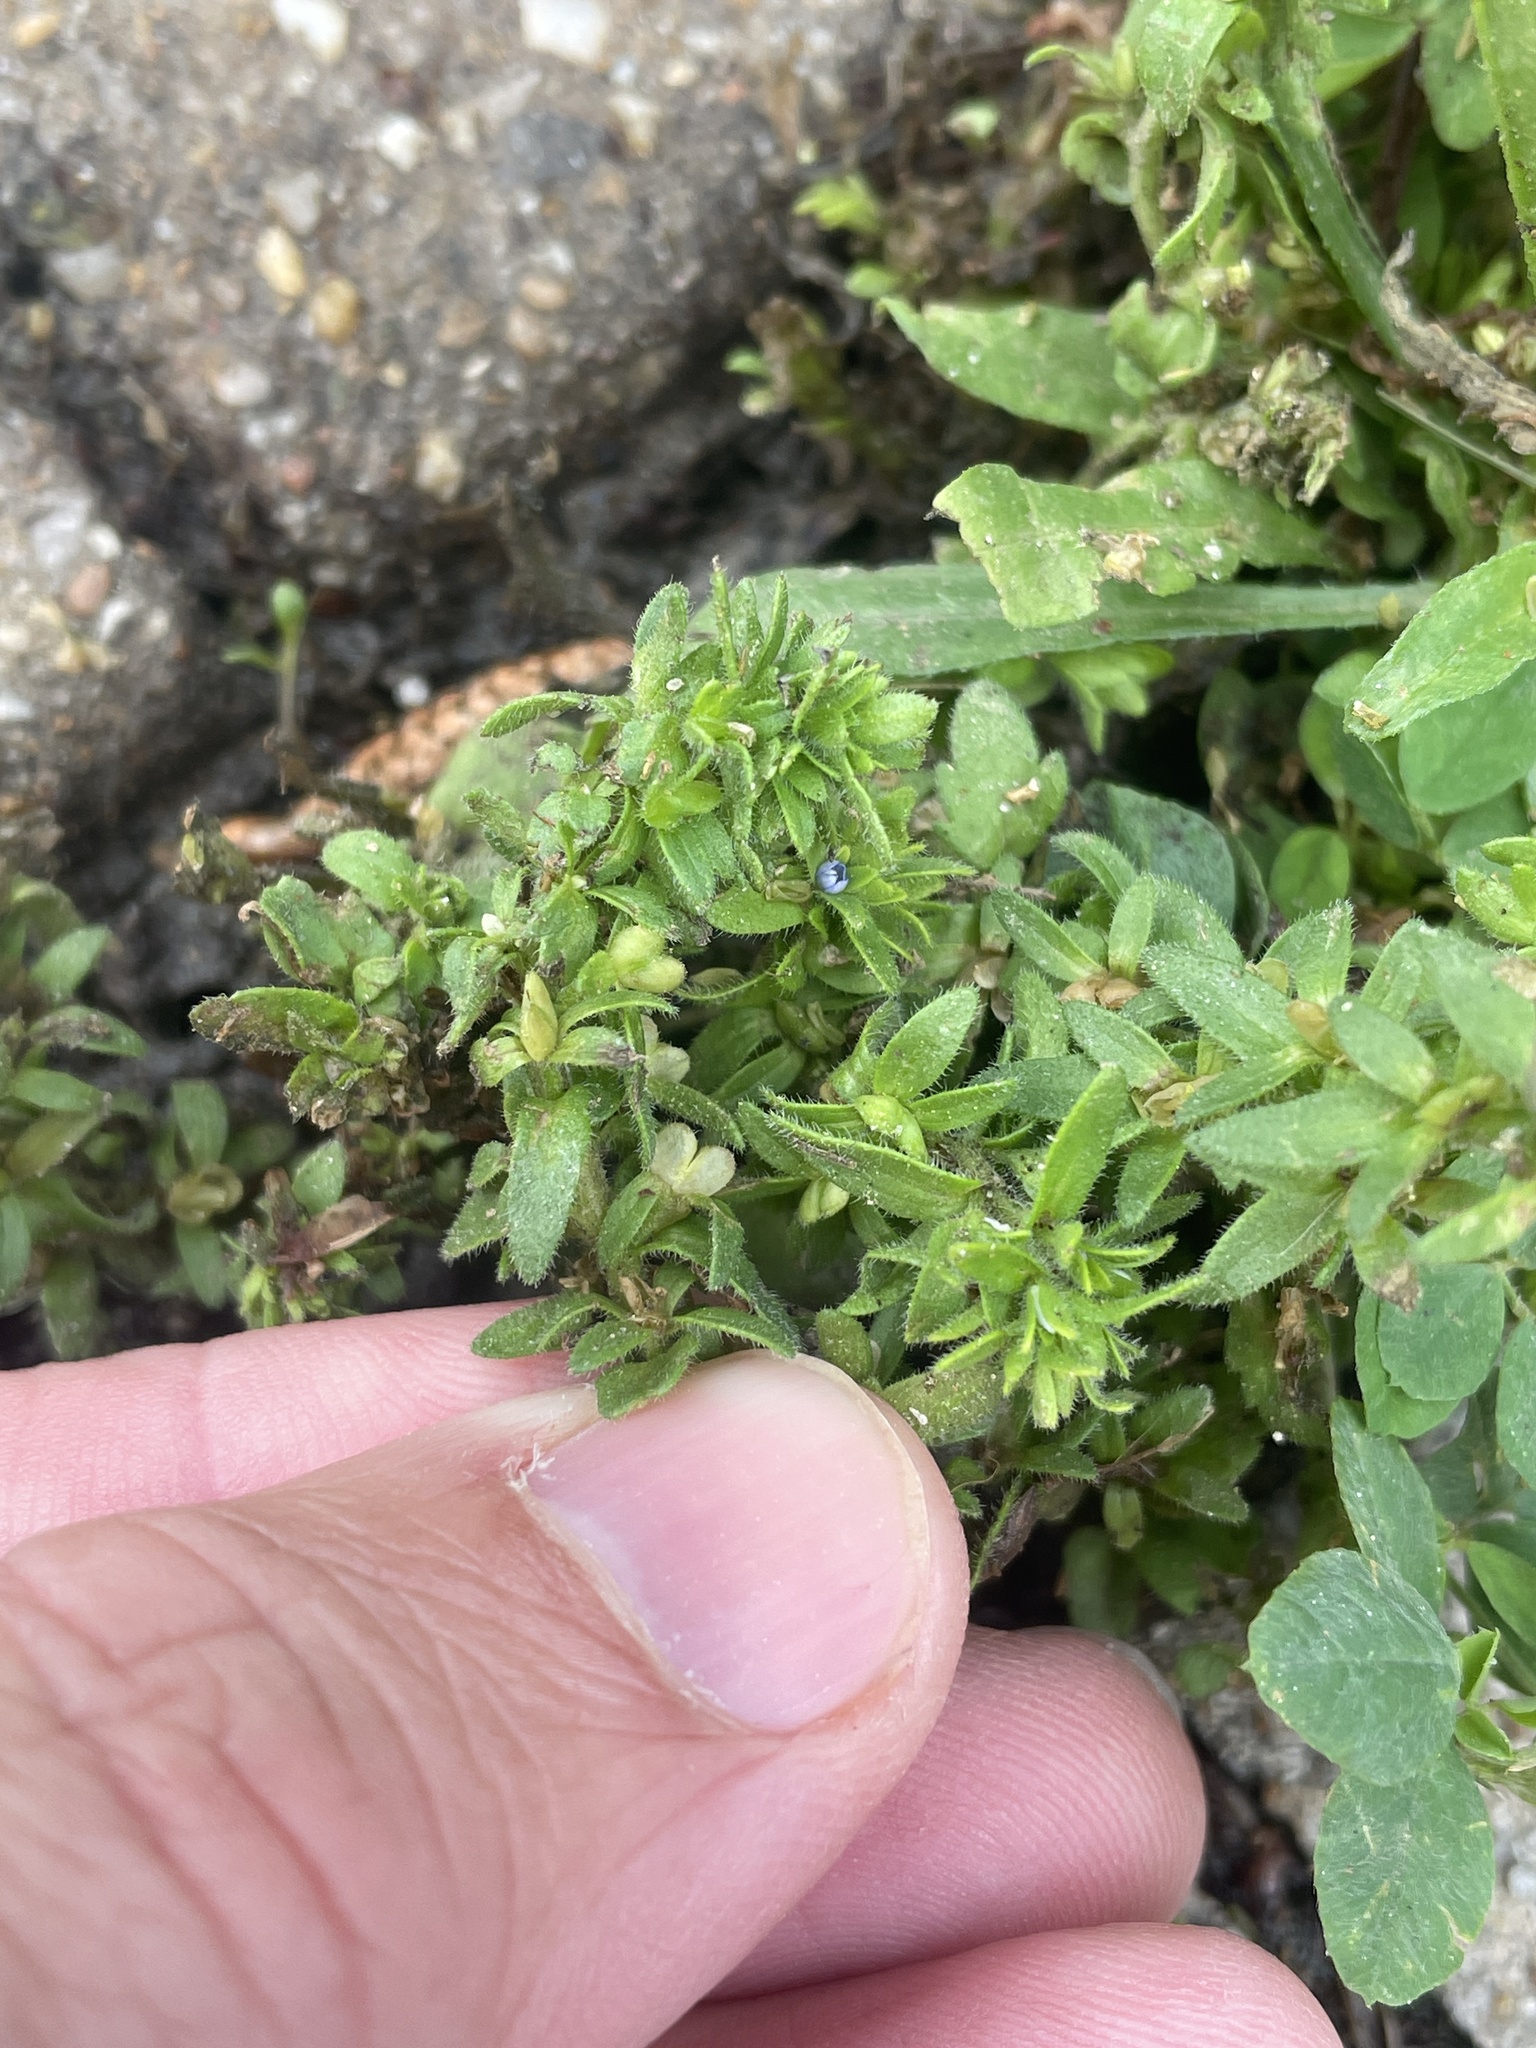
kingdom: Plantae
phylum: Tracheophyta
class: Magnoliopsida
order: Lamiales
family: Plantaginaceae
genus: Veronica
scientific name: Veronica arvensis
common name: Corn speedwell
